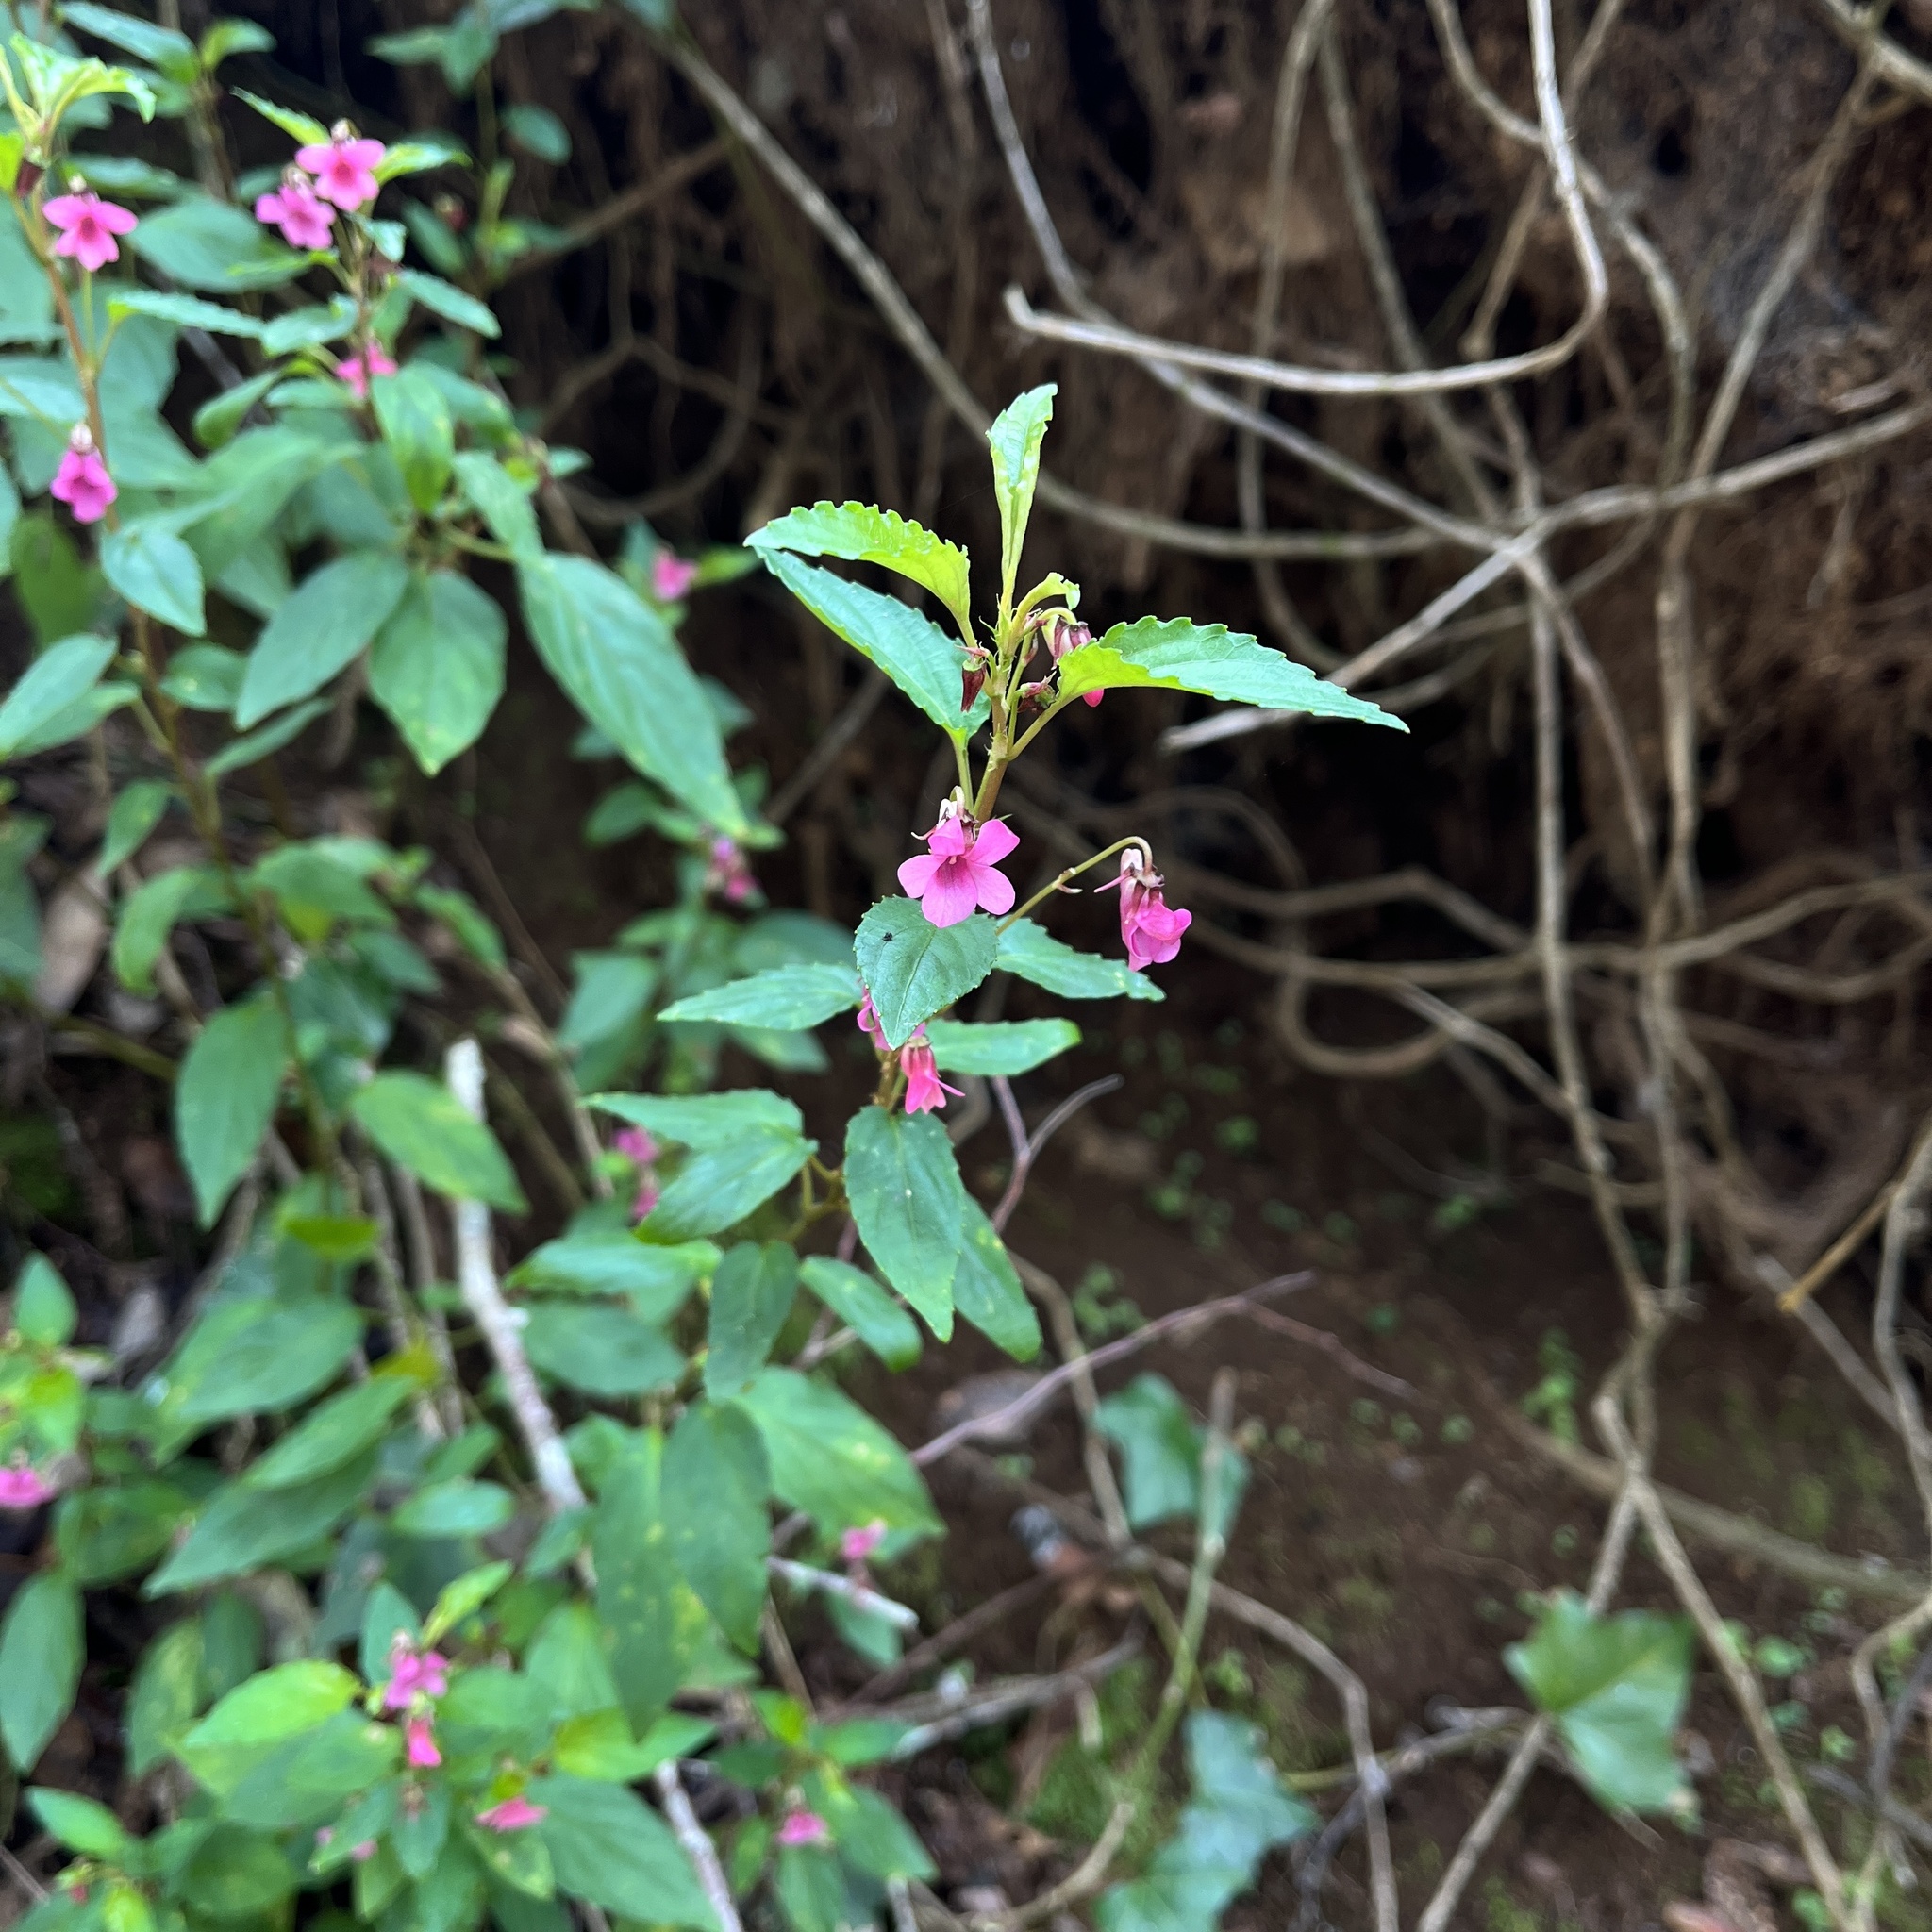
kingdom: Plantae
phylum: Tracheophyta
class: Magnoliopsida
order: Malpighiales
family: Violaceae
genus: Viola
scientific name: Viola rubella
